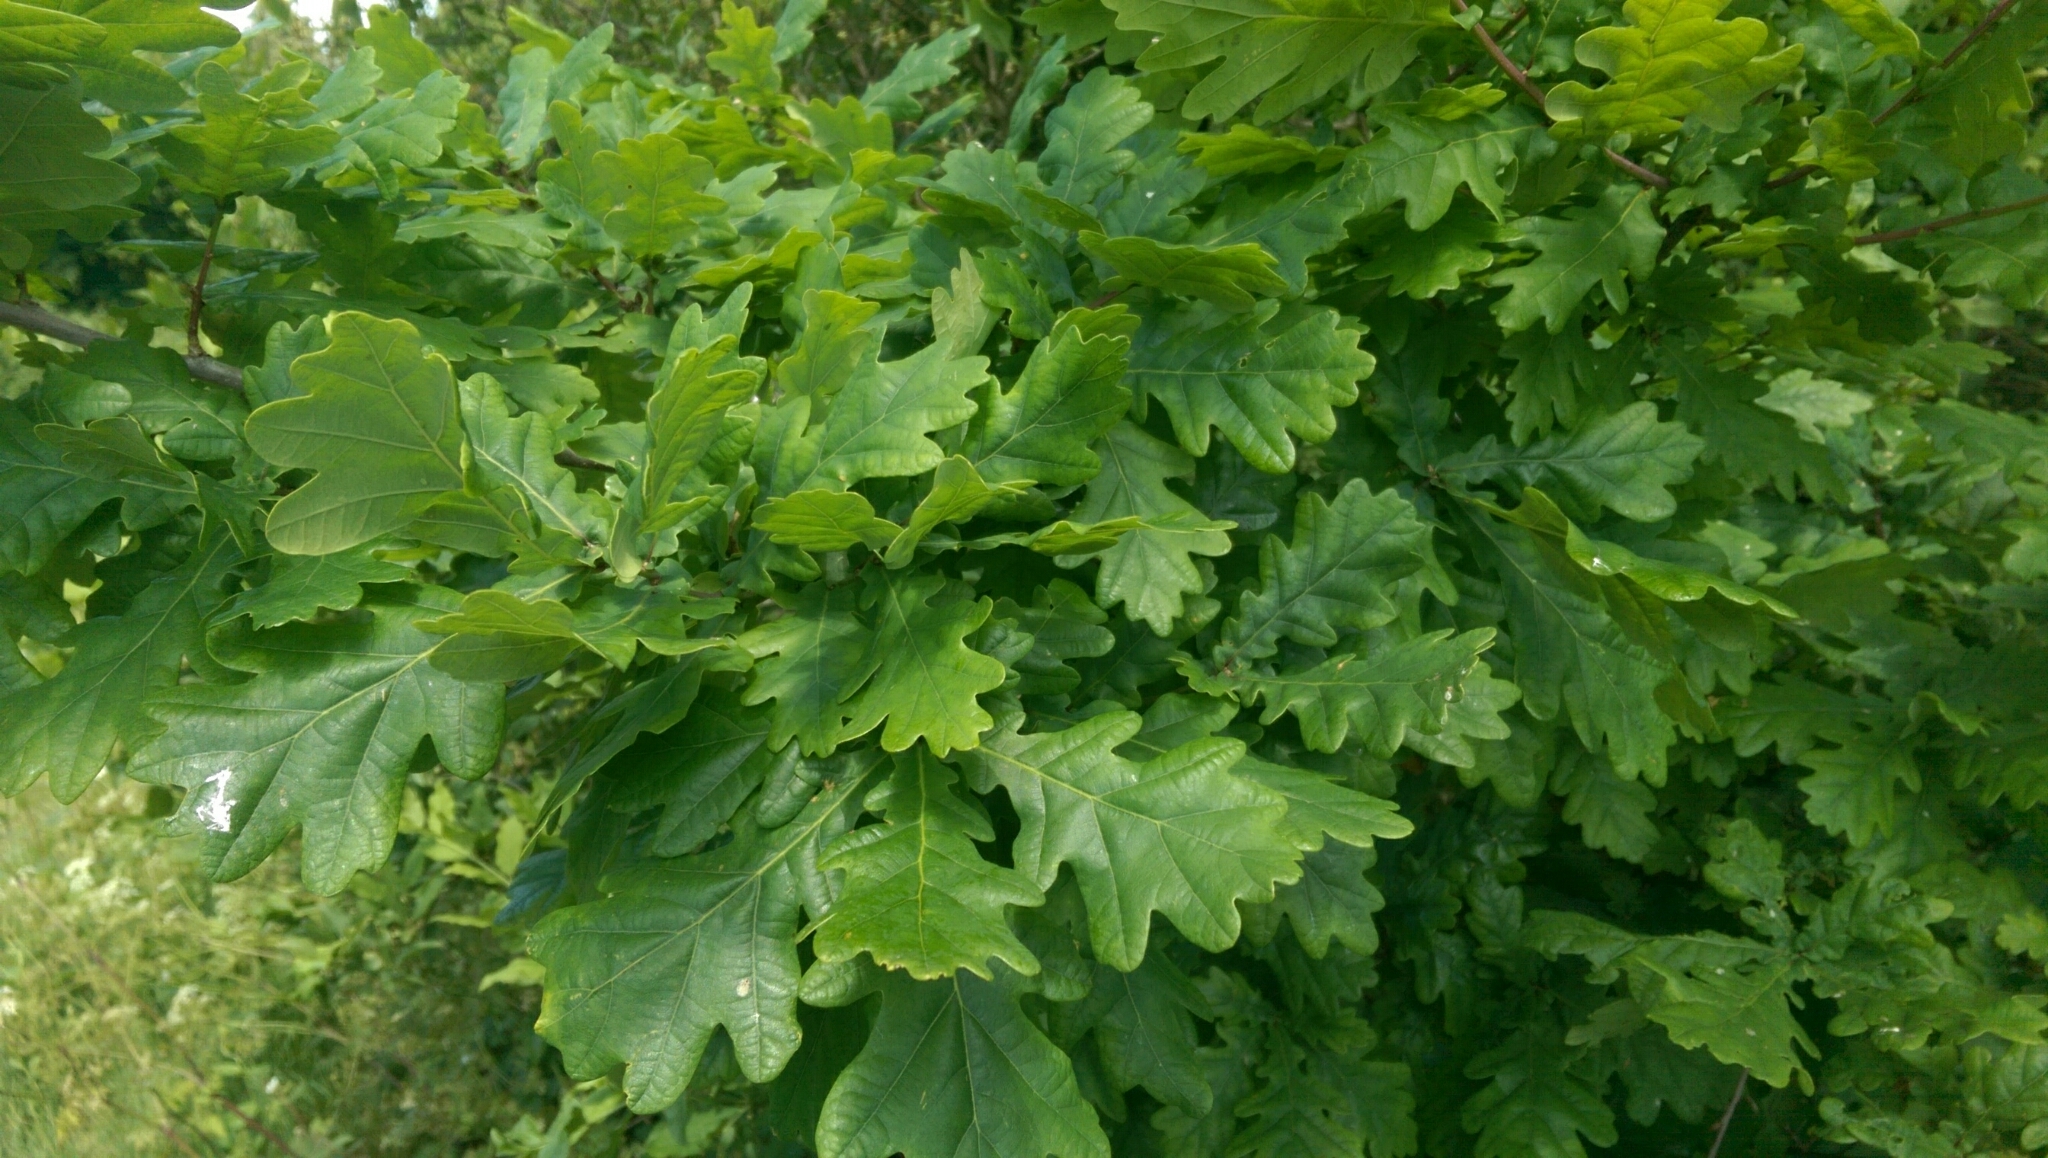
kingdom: Plantae
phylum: Tracheophyta
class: Magnoliopsida
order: Fagales
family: Fagaceae
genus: Quercus
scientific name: Quercus robur
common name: Pedunculate oak
